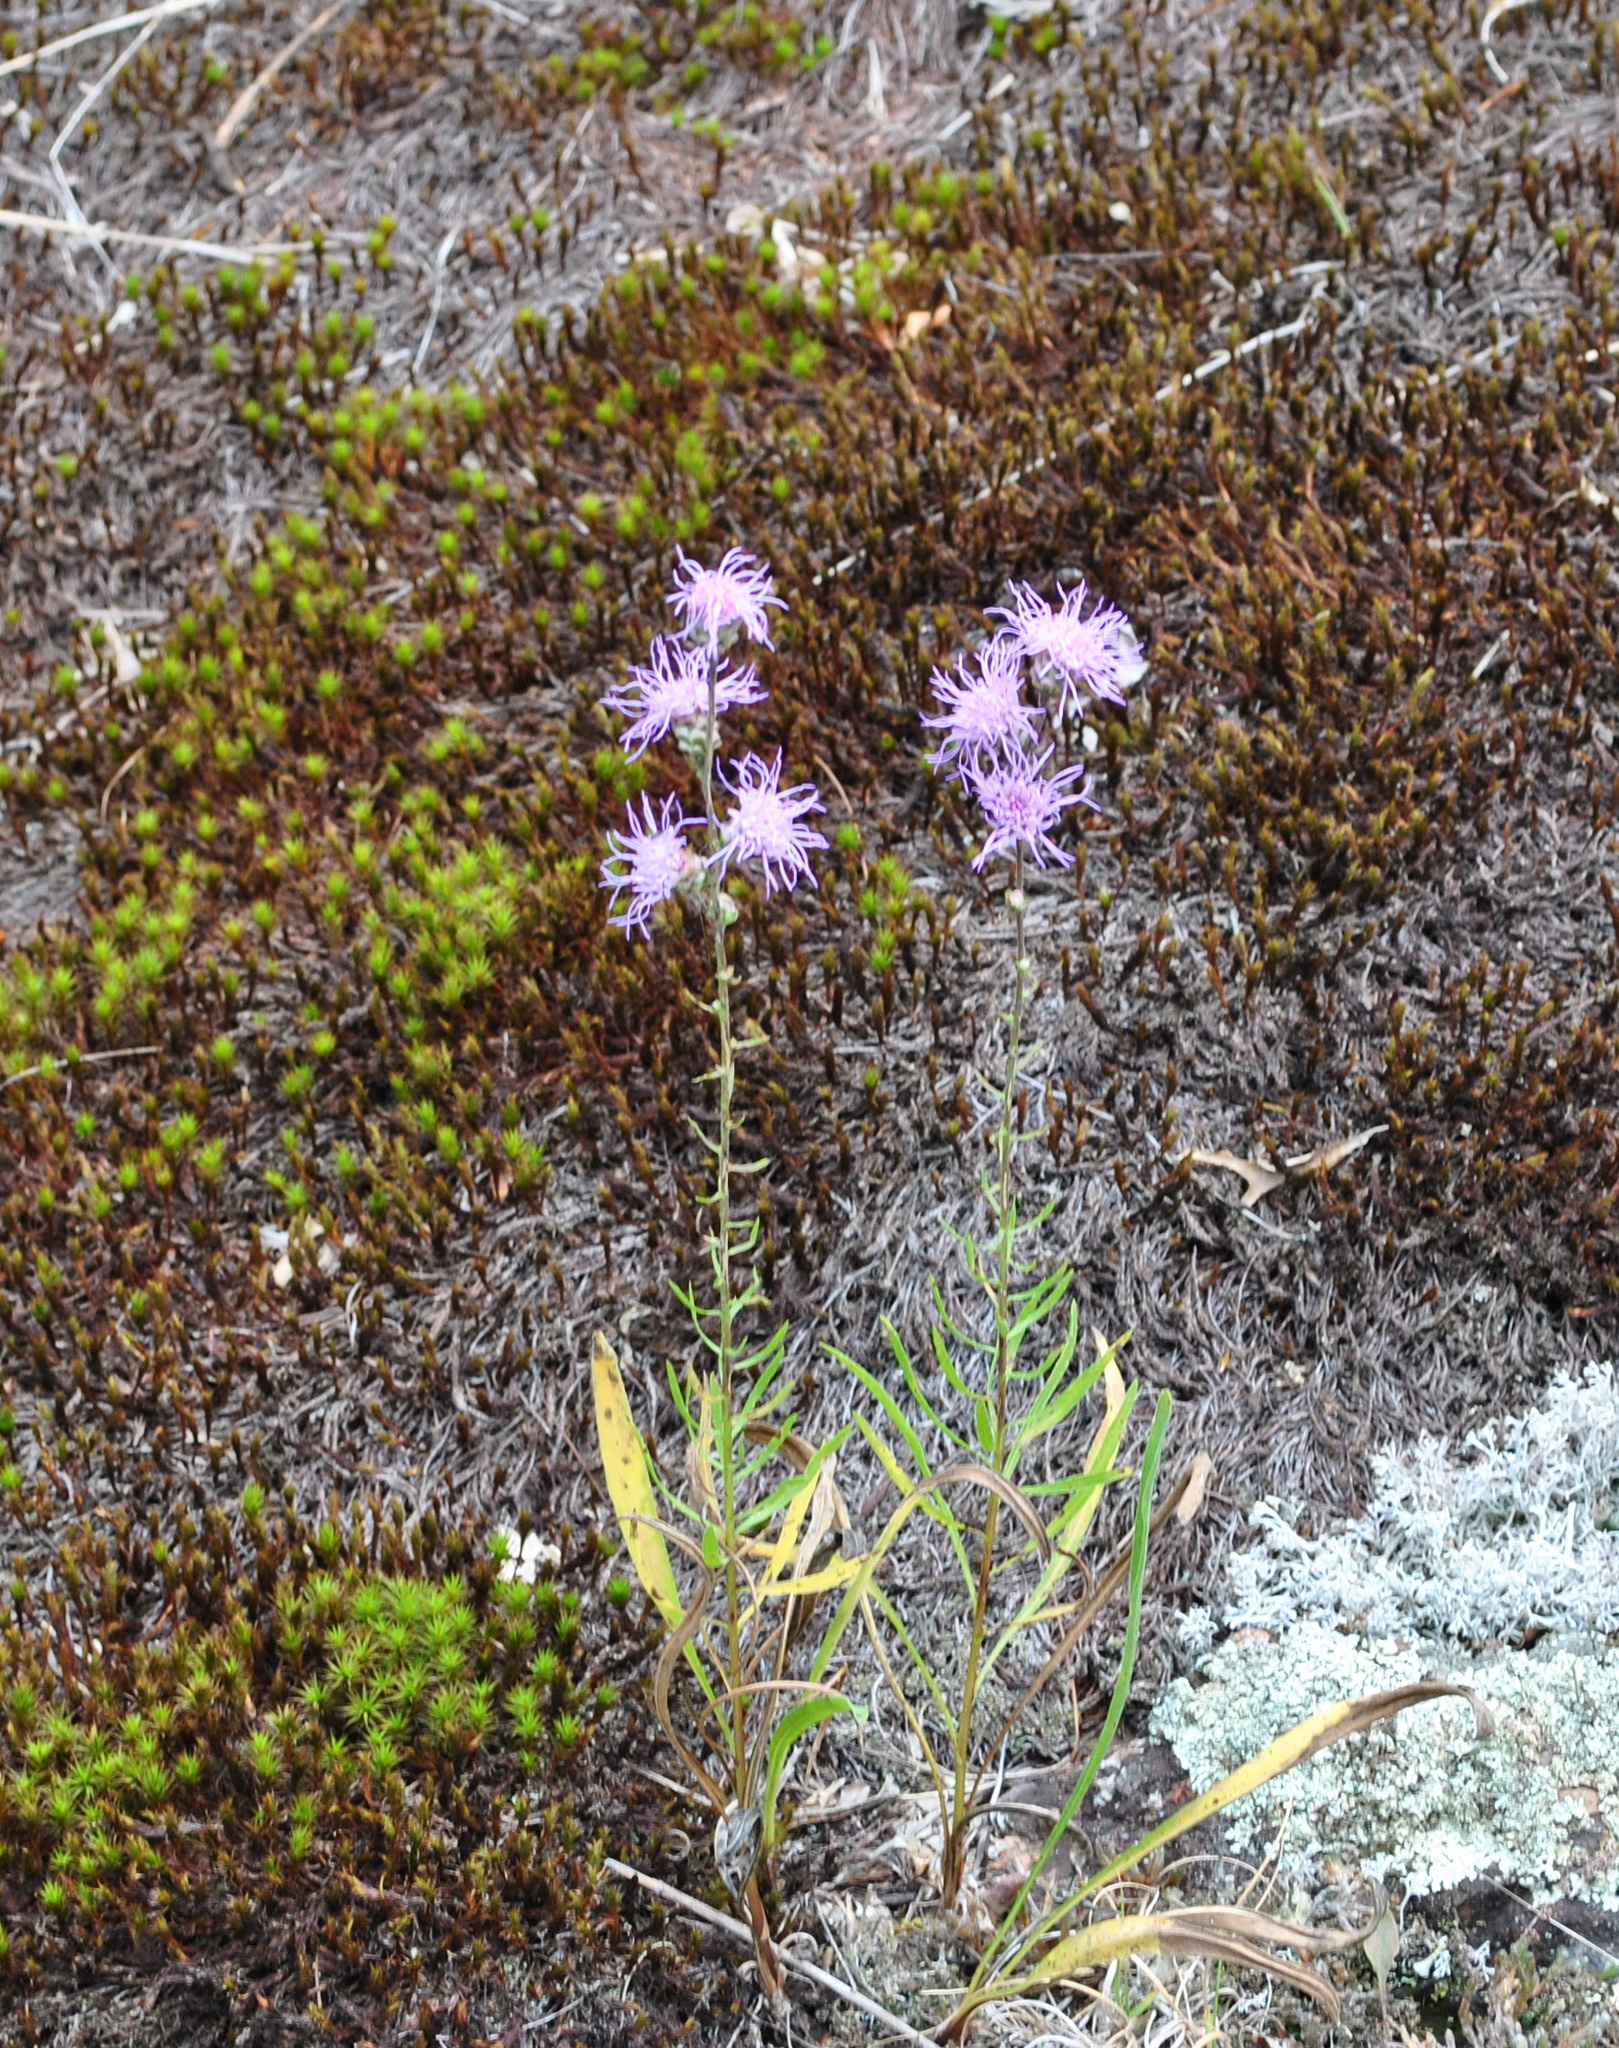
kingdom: Plantae
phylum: Tracheophyta
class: Magnoliopsida
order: Asterales
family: Asteraceae
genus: Liatris
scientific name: Liatris aspera
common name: Lacerate blazing-star
